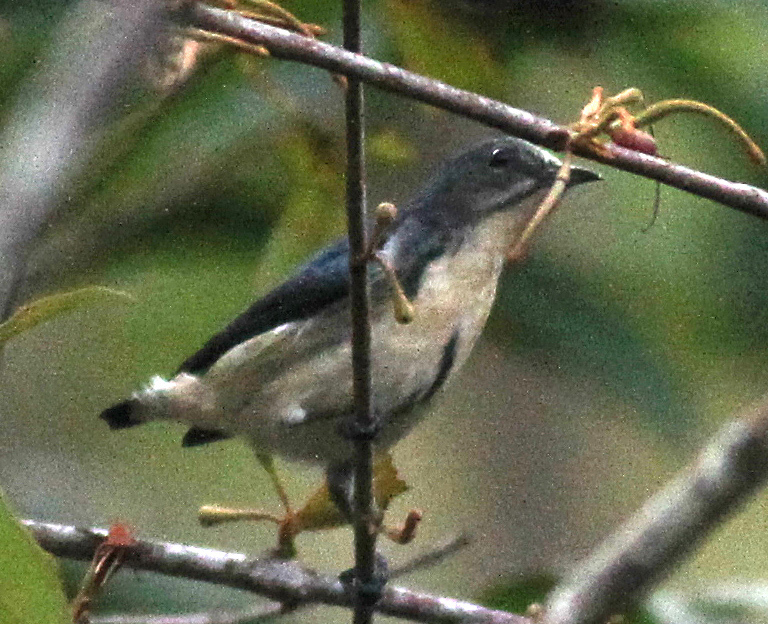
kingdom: Animalia
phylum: Chordata
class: Aves
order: Passeriformes
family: Dicaeidae
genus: Dicaeum
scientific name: Dicaeum ignipectus
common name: Fire-breasted flowerpecker
